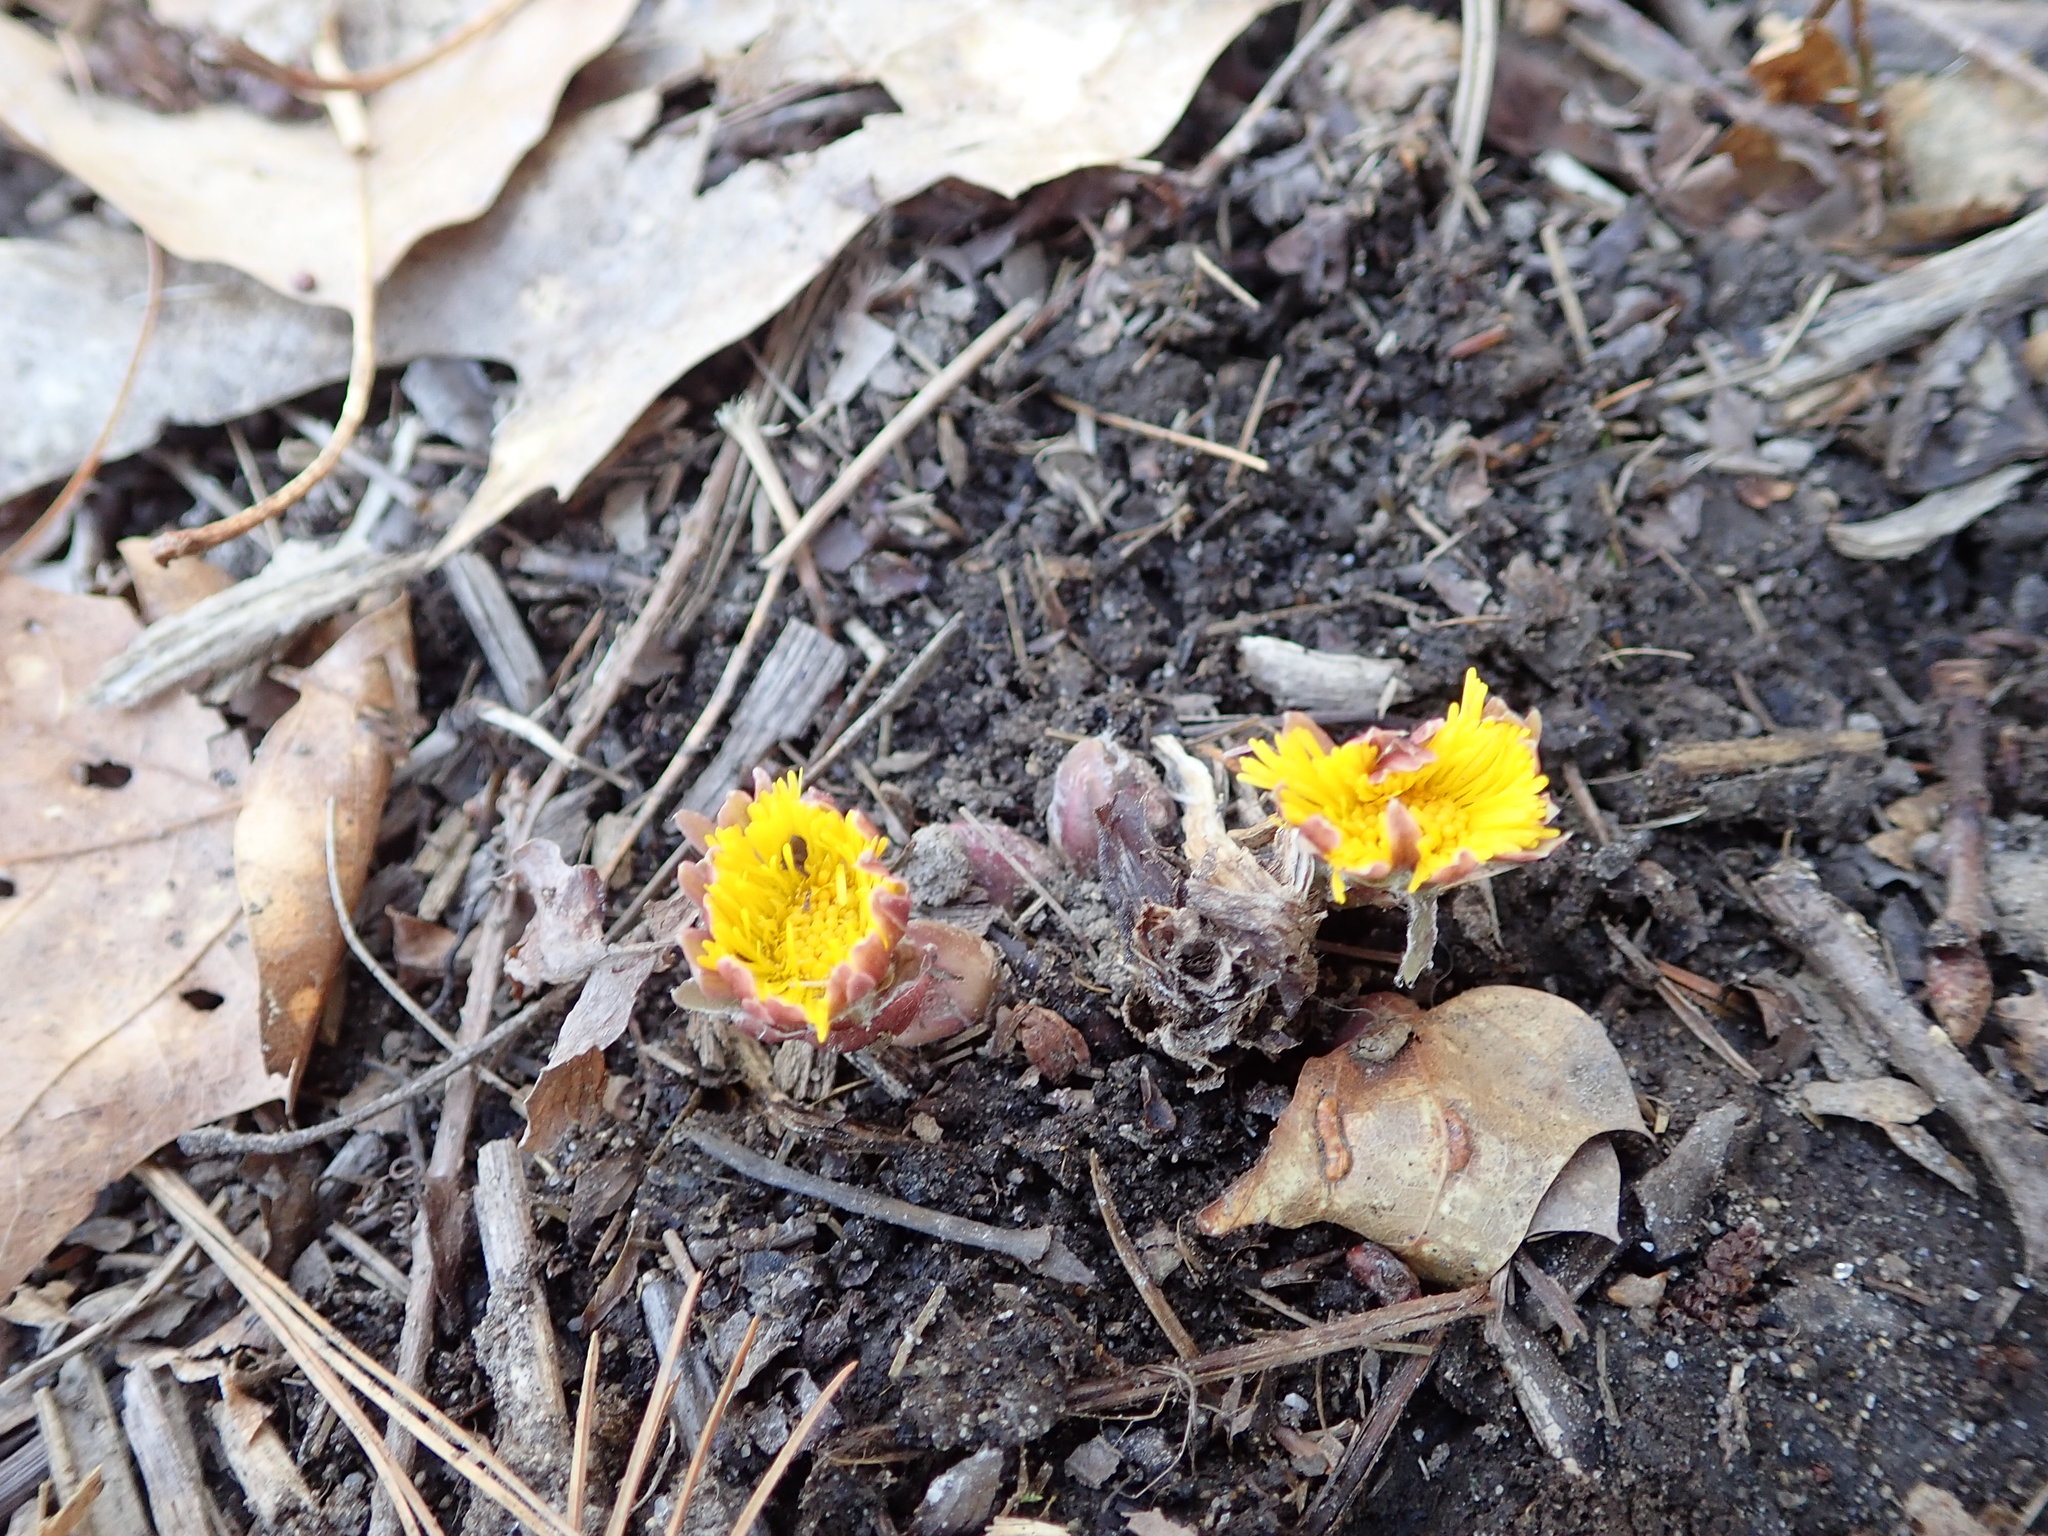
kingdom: Plantae
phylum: Tracheophyta
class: Magnoliopsida
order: Asterales
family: Asteraceae
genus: Tussilago
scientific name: Tussilago farfara
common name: Coltsfoot
